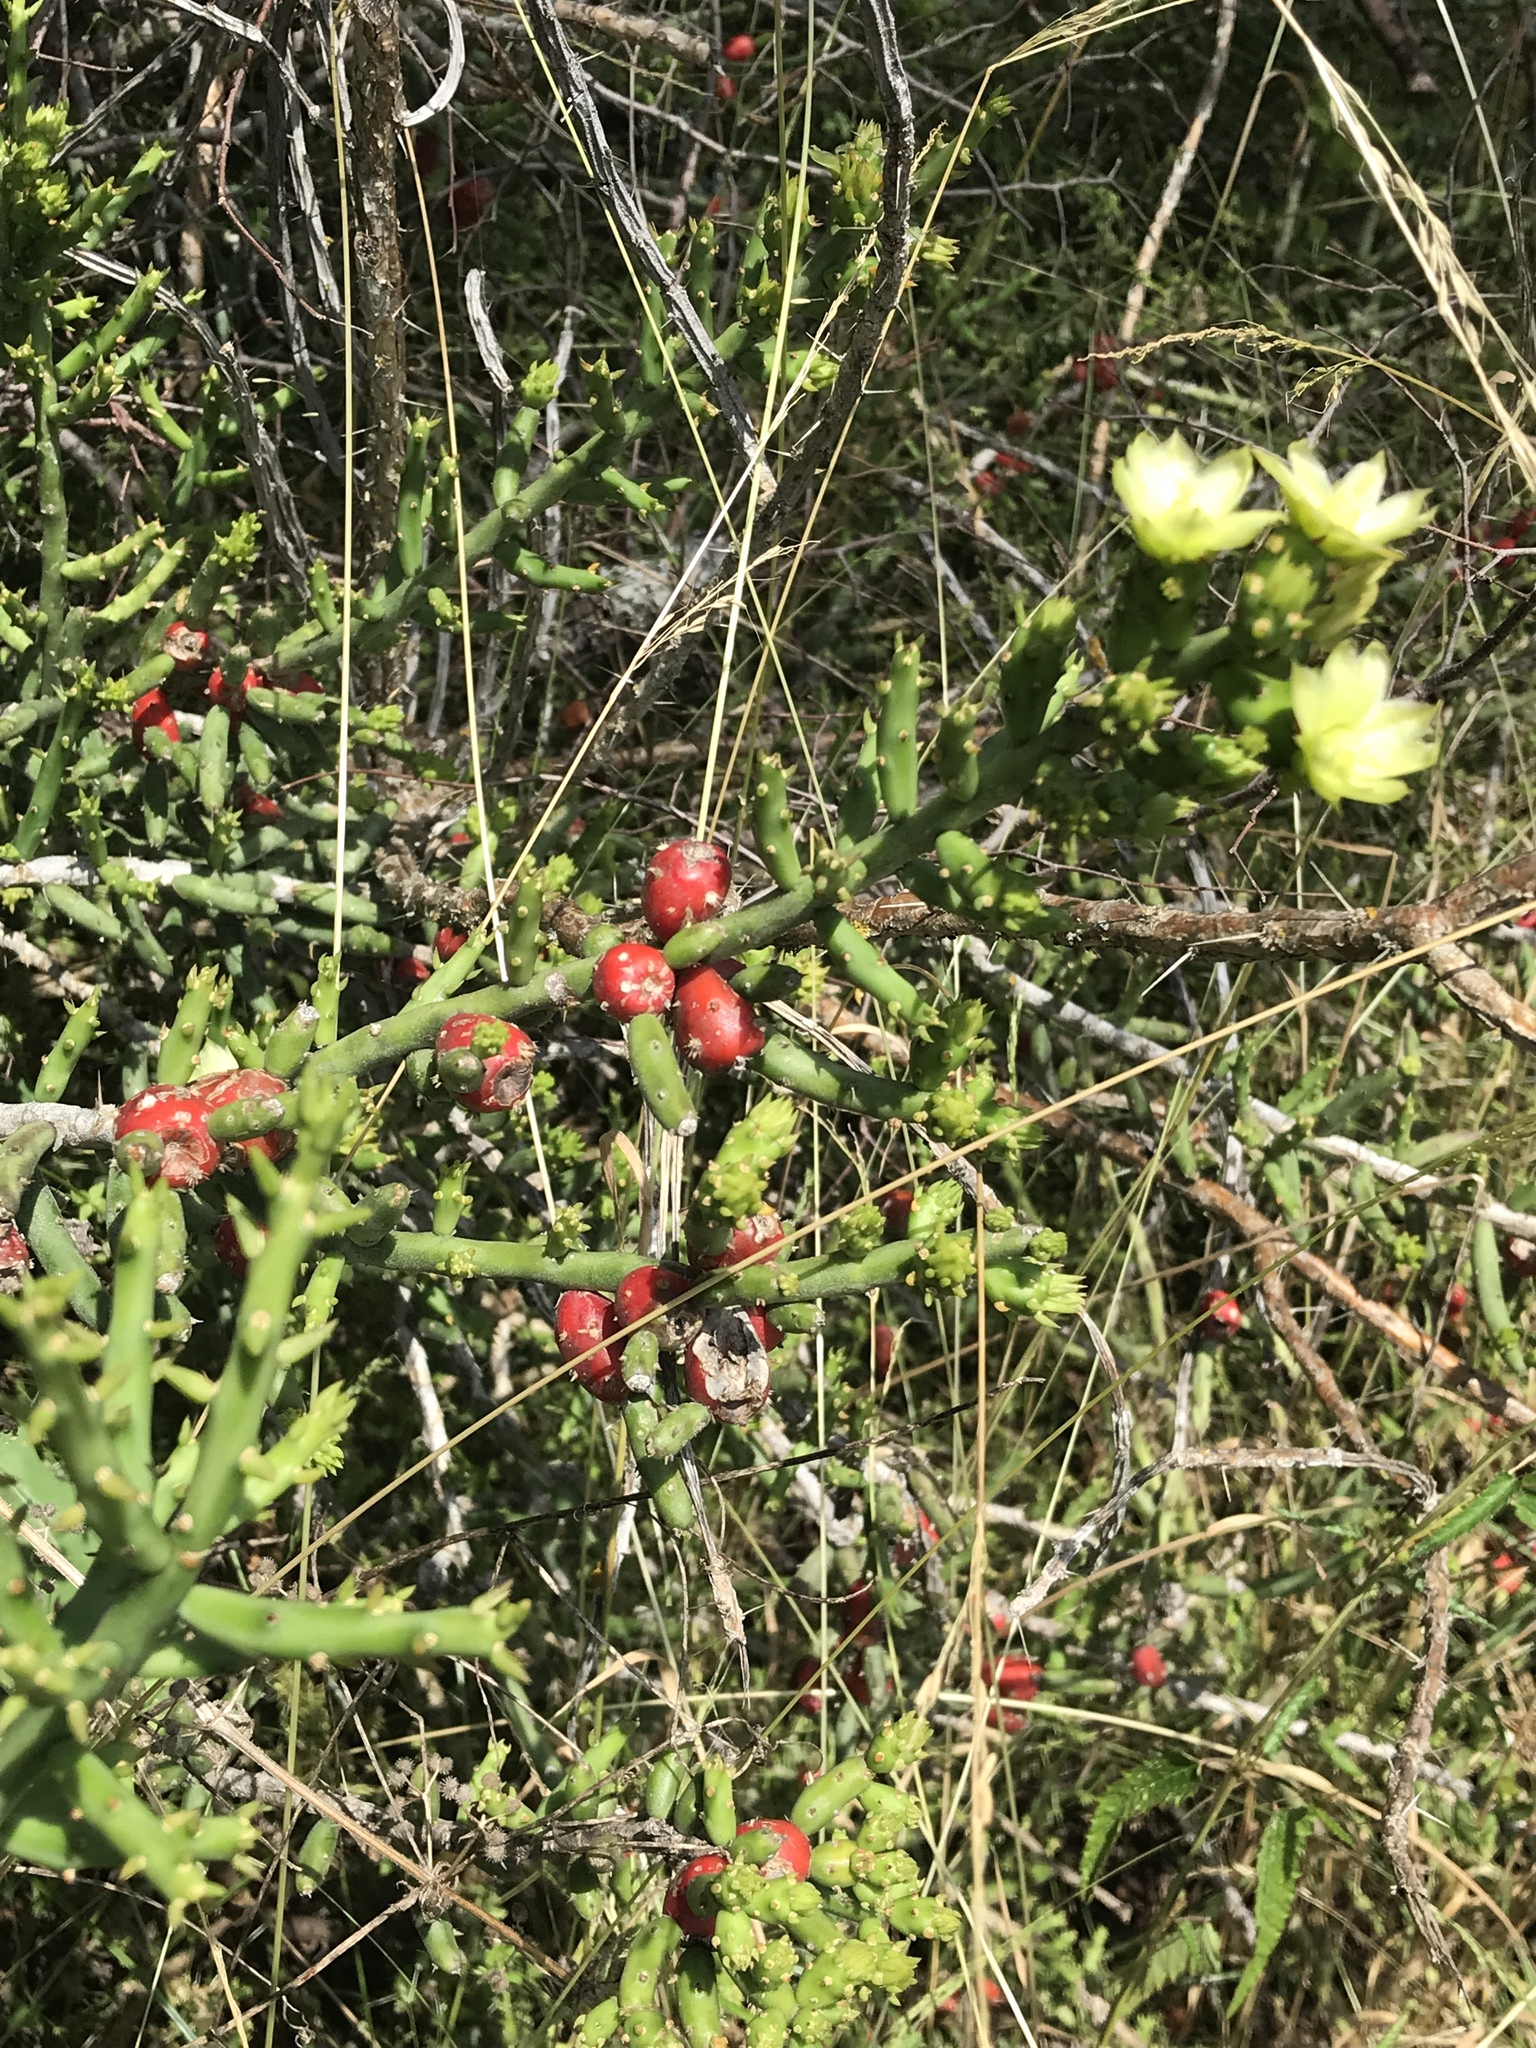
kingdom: Plantae
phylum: Tracheophyta
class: Magnoliopsida
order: Caryophyllales
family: Cactaceae
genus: Cylindropuntia
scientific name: Cylindropuntia leptocaulis
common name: Christmas cactus
